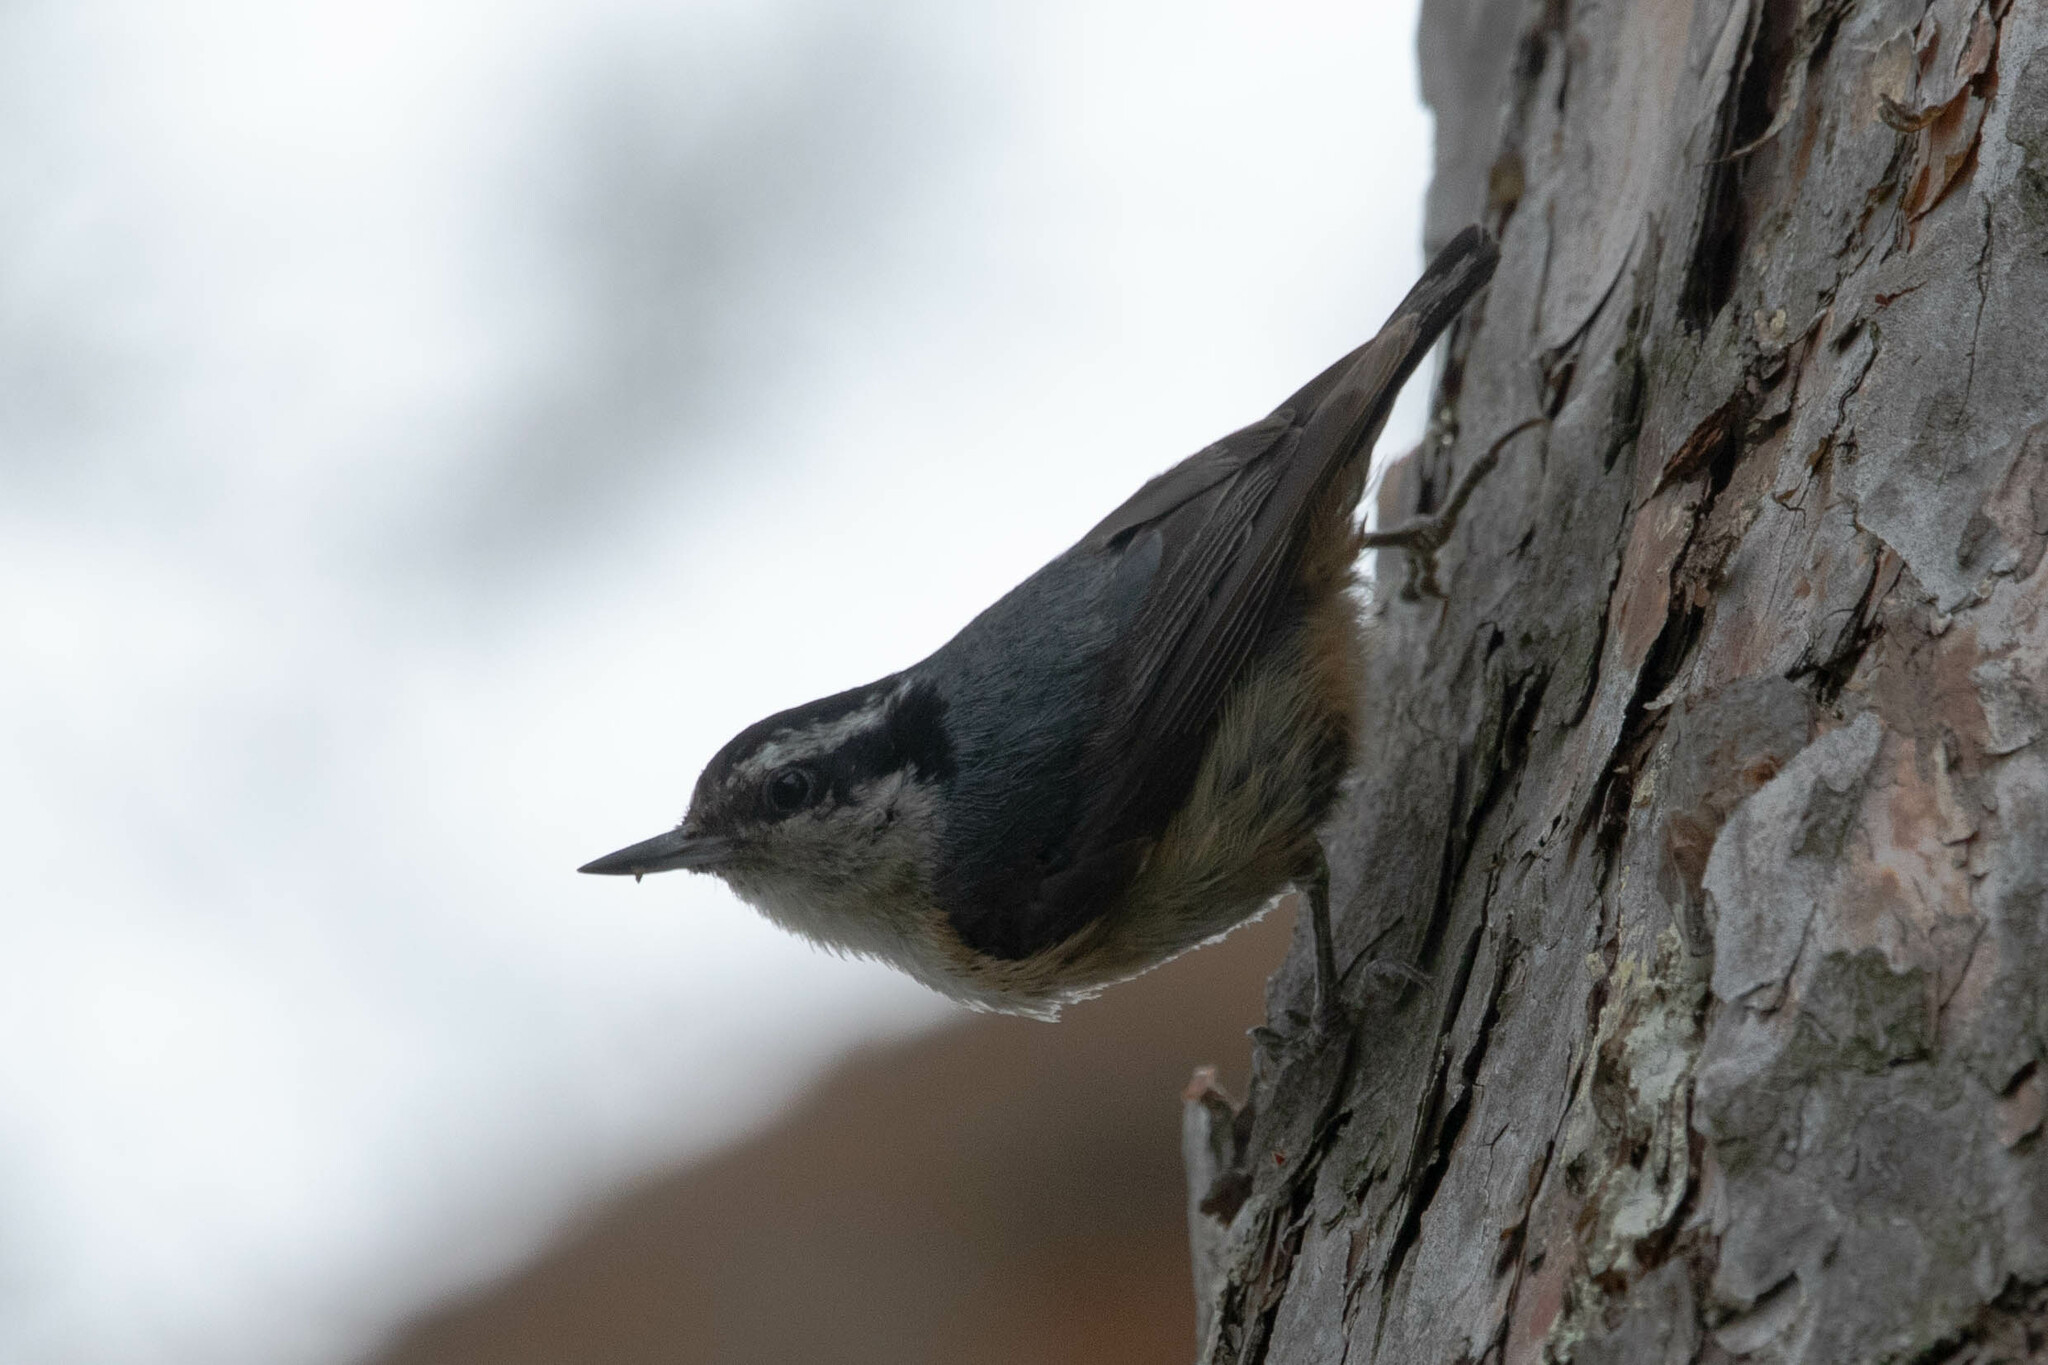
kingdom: Animalia
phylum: Chordata
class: Aves
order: Passeriformes
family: Sittidae
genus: Sitta
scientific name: Sitta canadensis
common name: Red-breasted nuthatch
